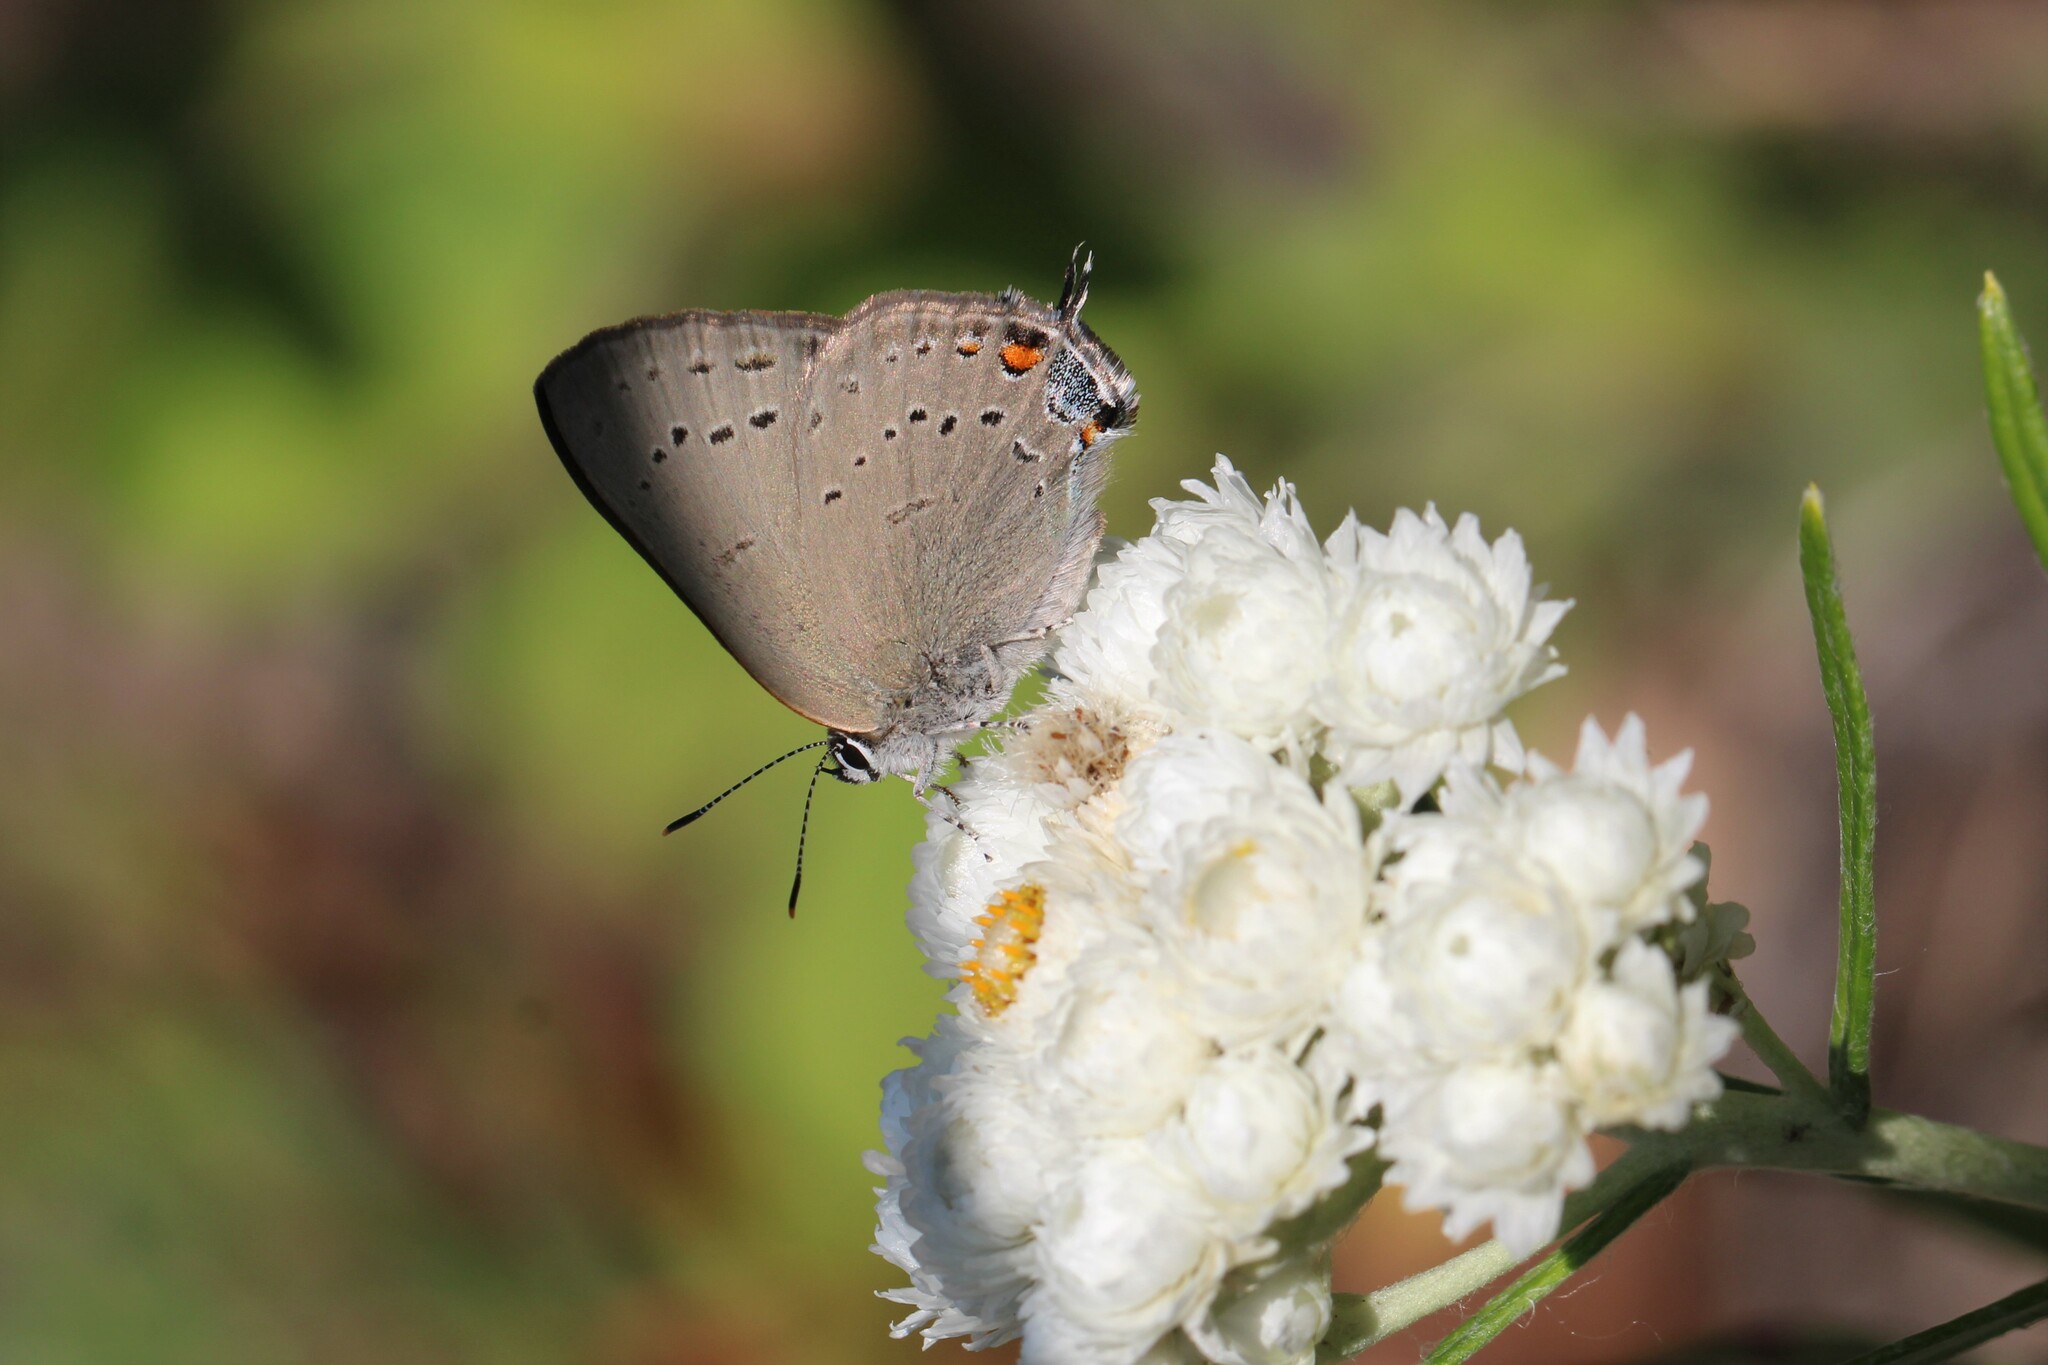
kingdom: Animalia
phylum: Arthropoda
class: Insecta
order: Lepidoptera
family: Lycaenidae
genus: Strymon
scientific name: Strymon sylvinus
